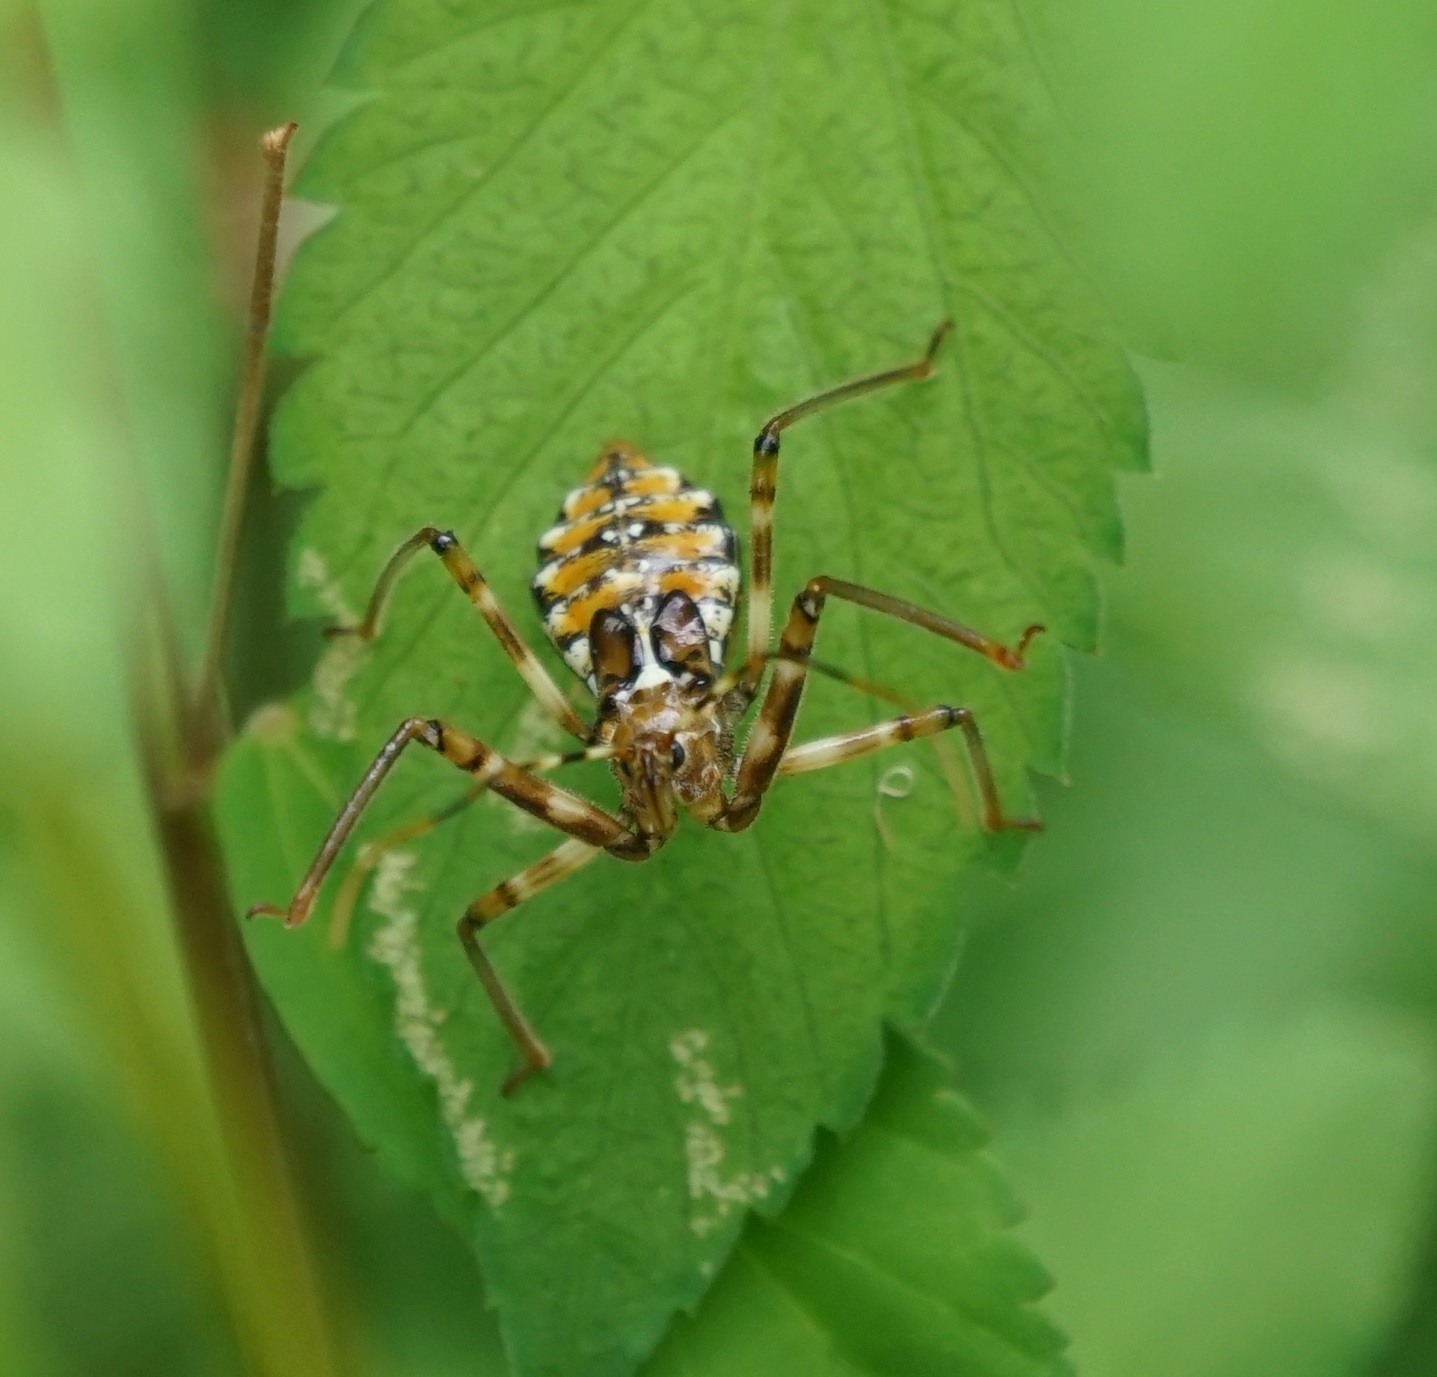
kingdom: Animalia
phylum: Arthropoda
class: Insecta
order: Hemiptera
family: Reduviidae
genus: Pristhesancus
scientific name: Pristhesancus plagipennis
